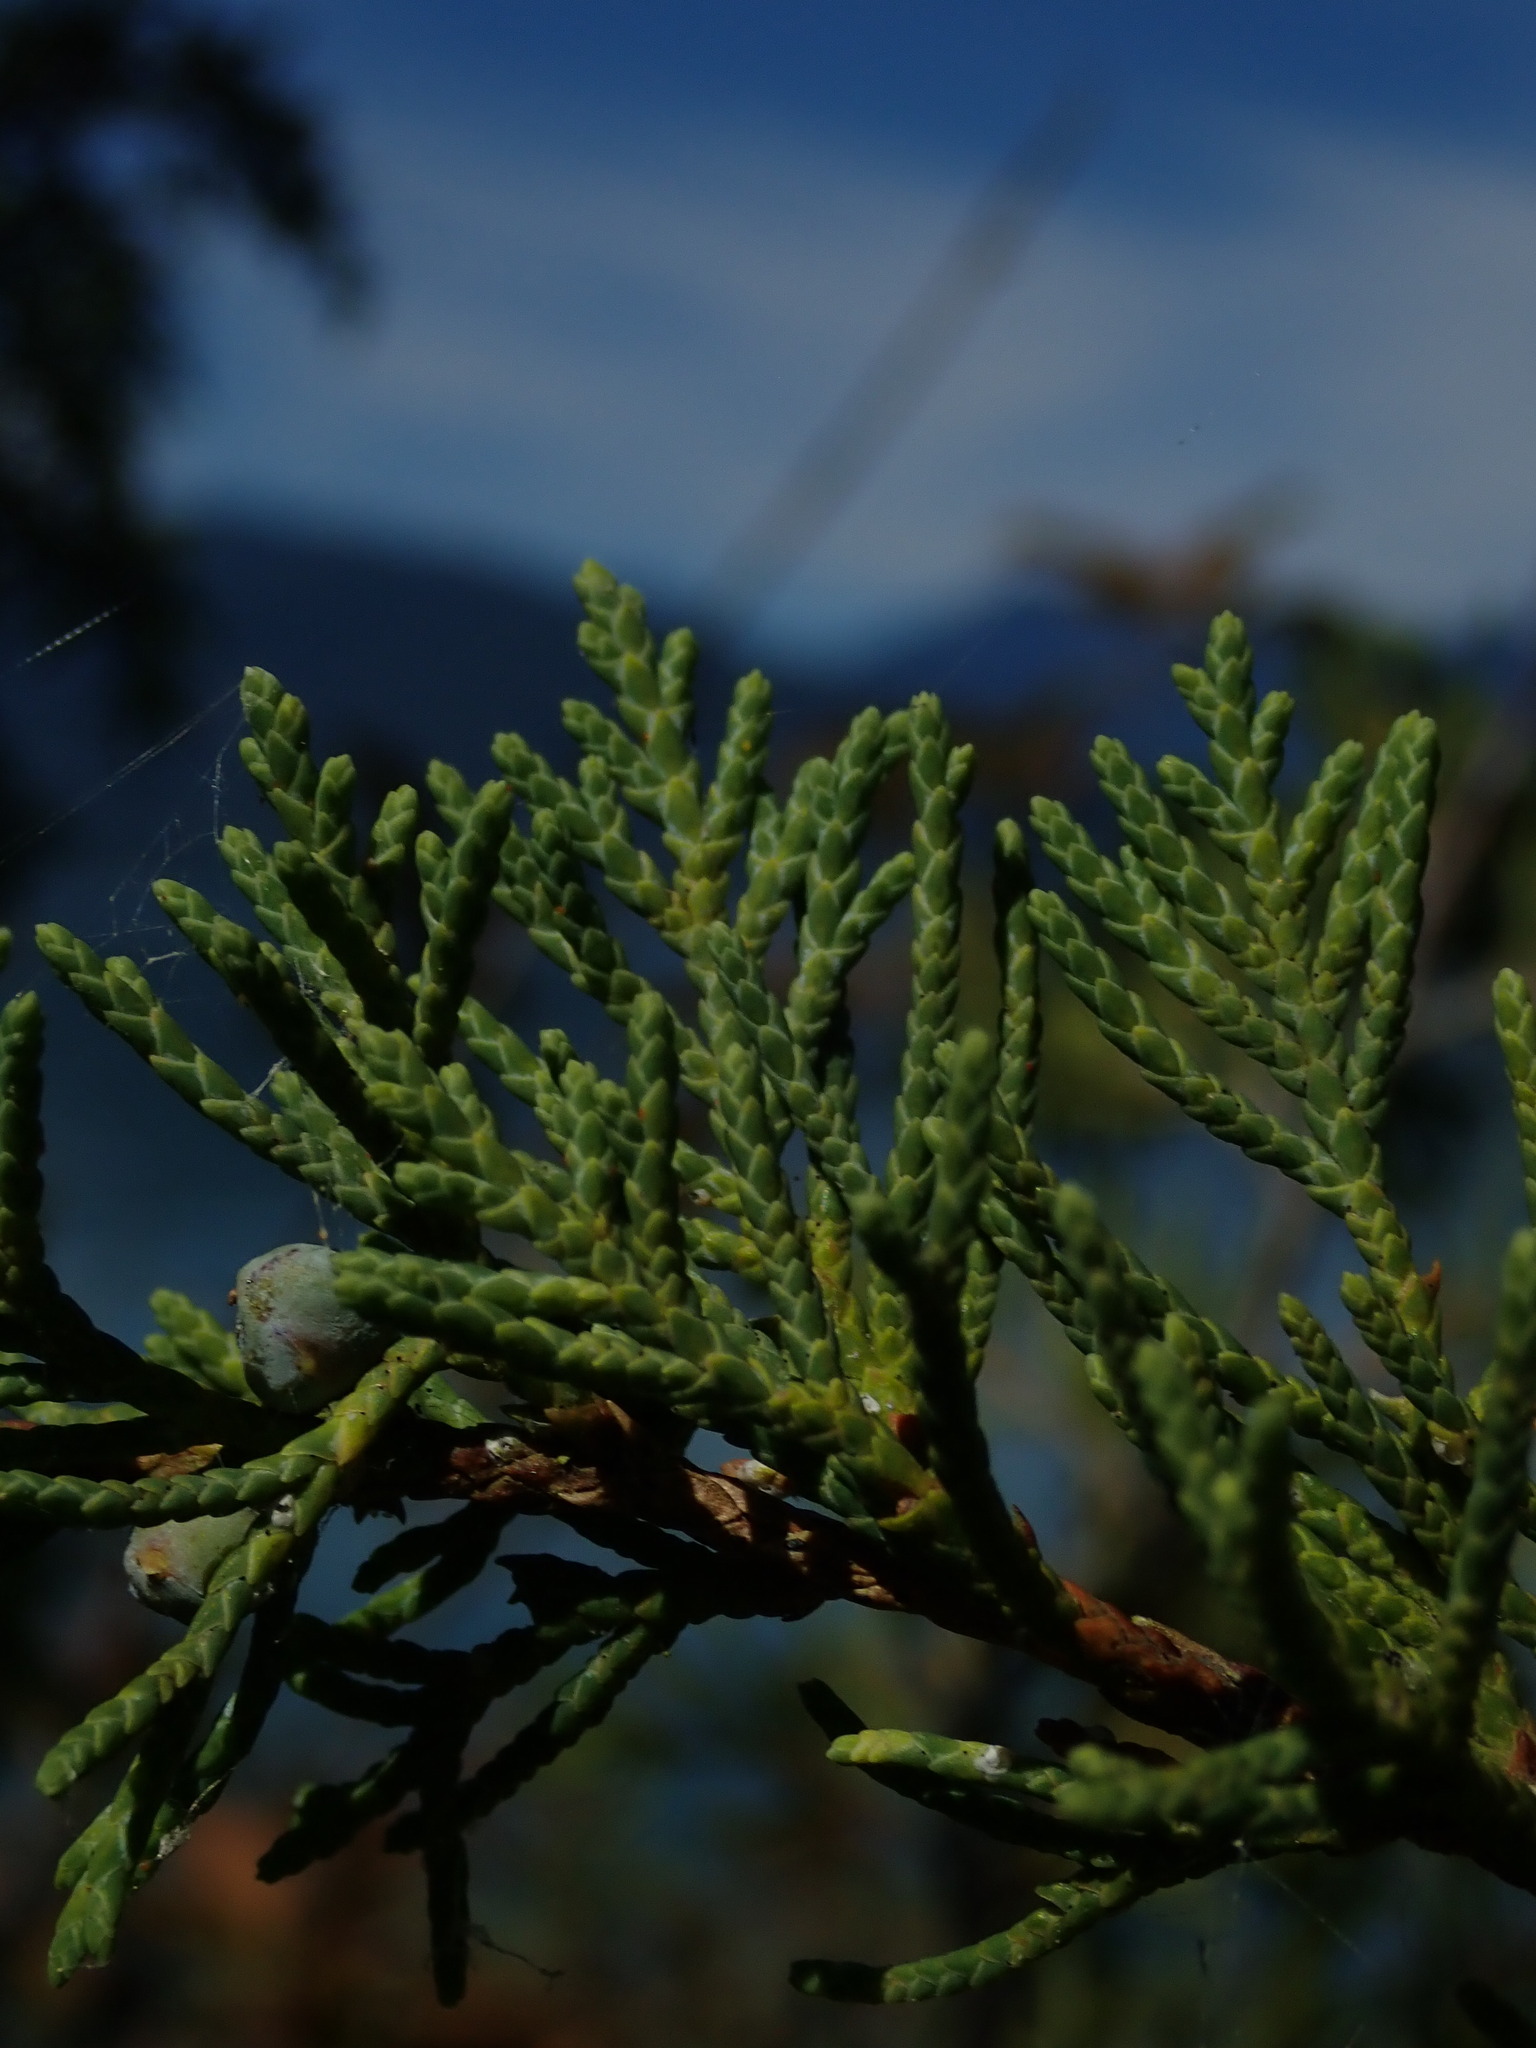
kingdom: Plantae
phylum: Tracheophyta
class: Pinopsida
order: Pinales
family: Cupressaceae
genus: Juniperus
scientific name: Juniperus scopulorum
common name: Rocky mountain juniper
